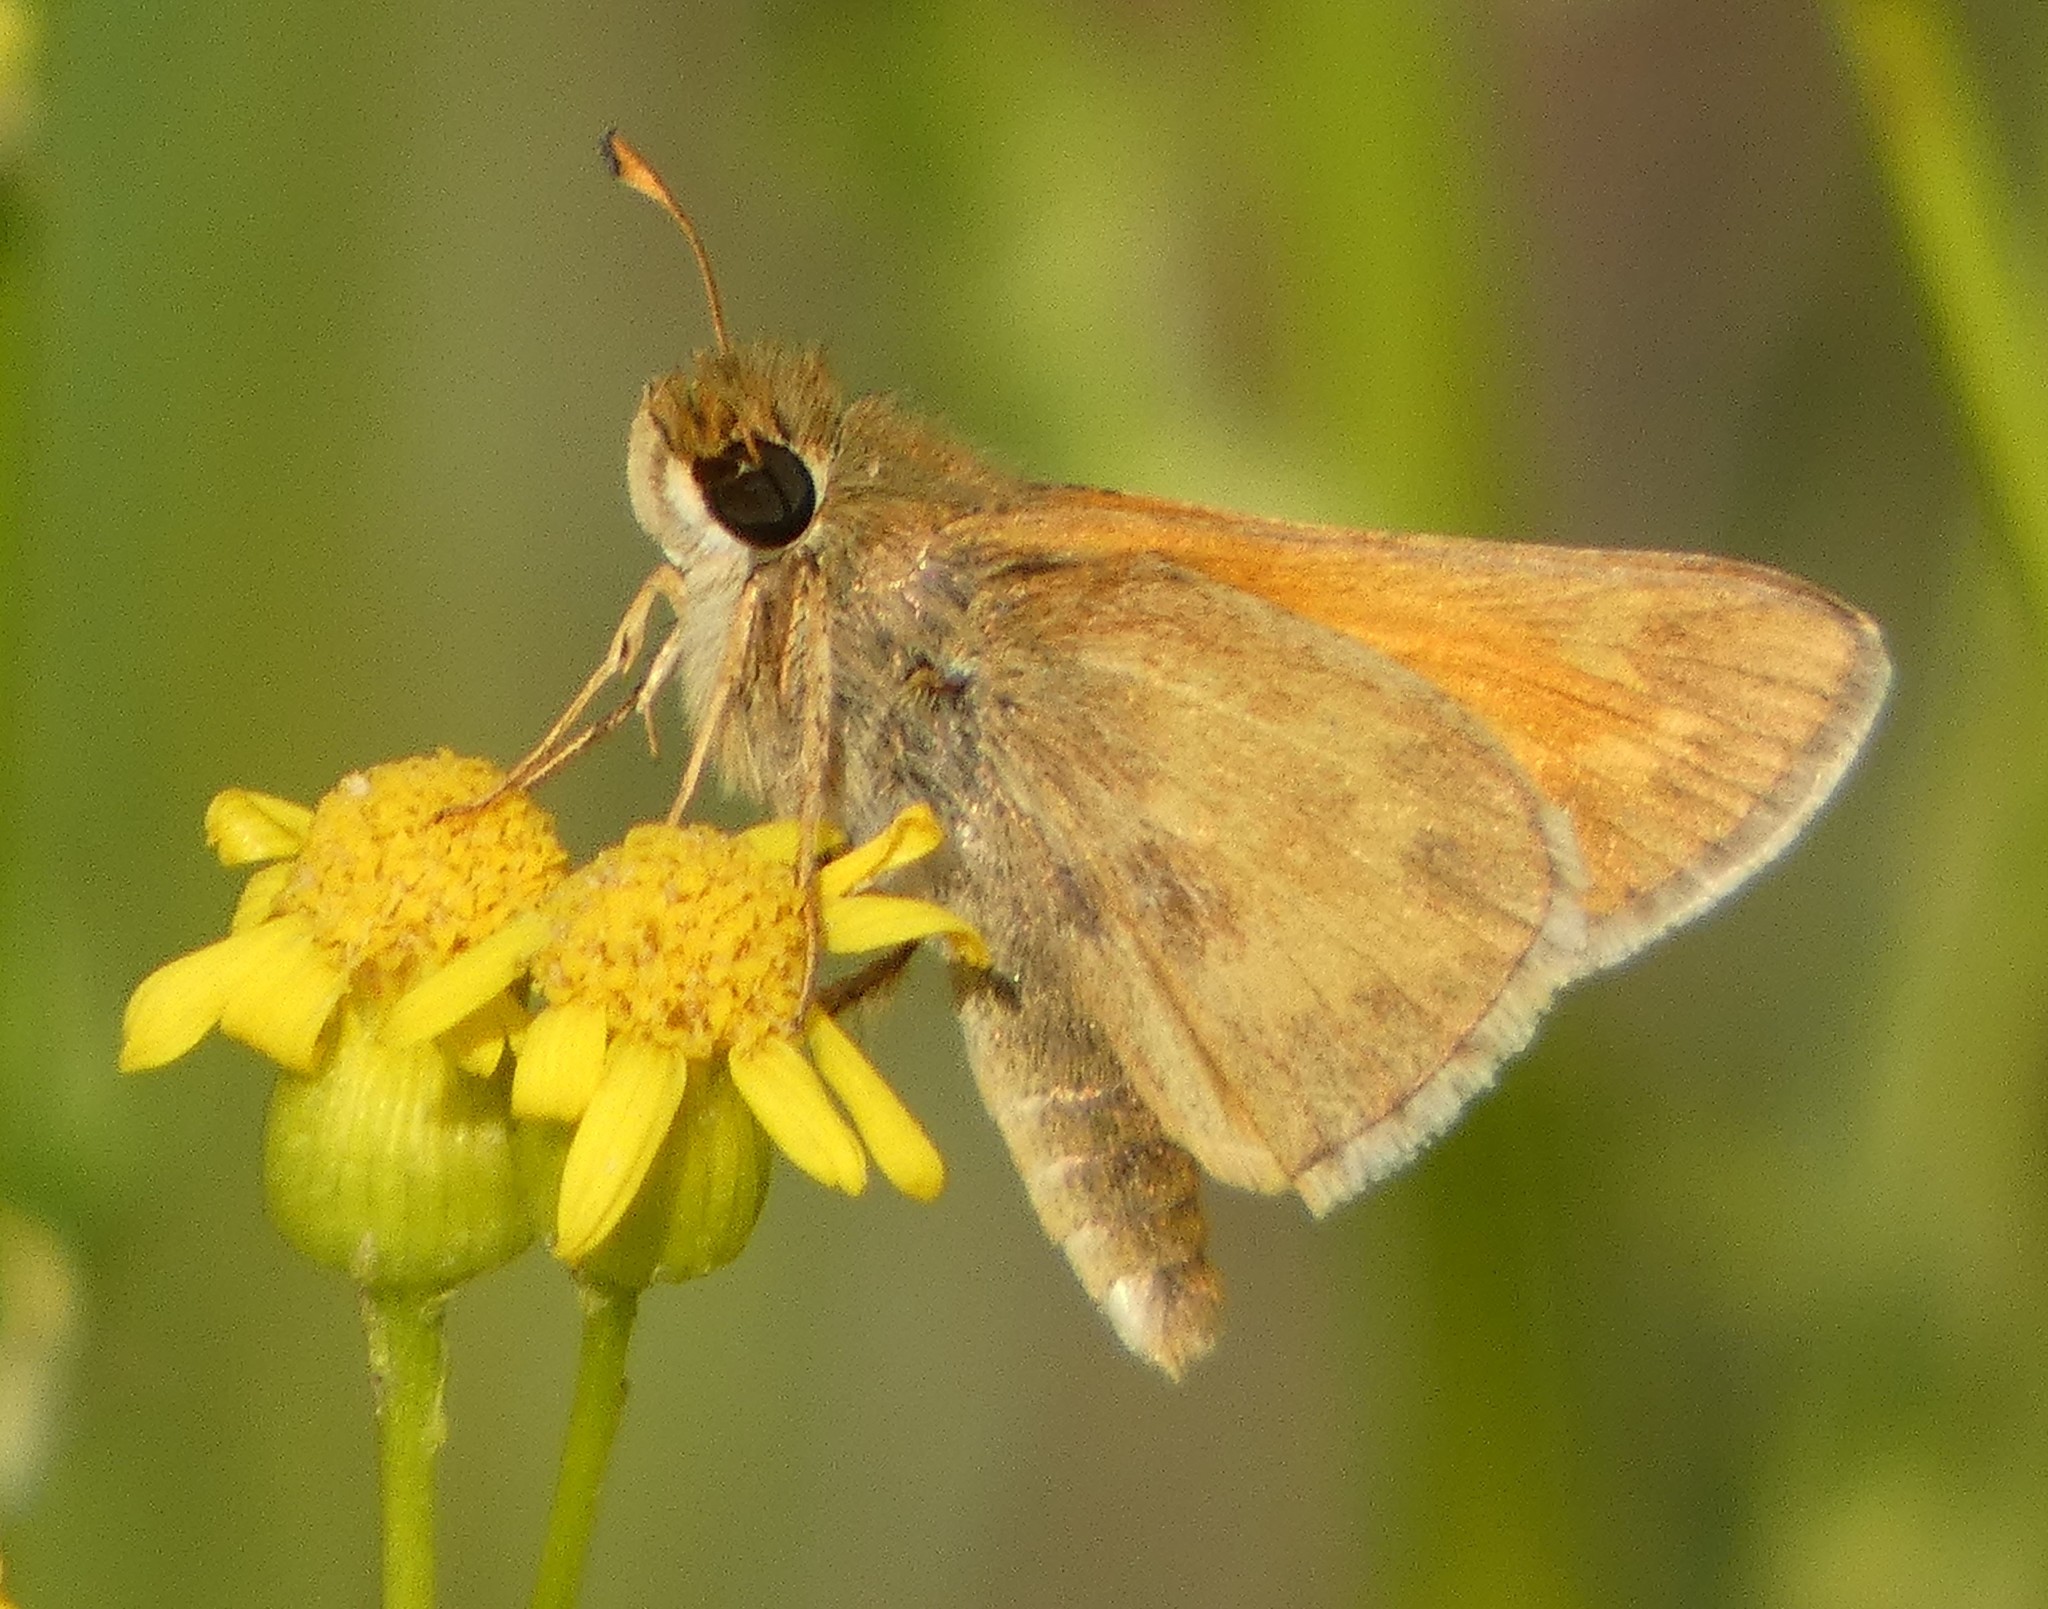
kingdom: Animalia
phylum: Arthropoda
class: Insecta
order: Lepidoptera
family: Hesperiidae
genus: Atalopedes
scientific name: Atalopedes
